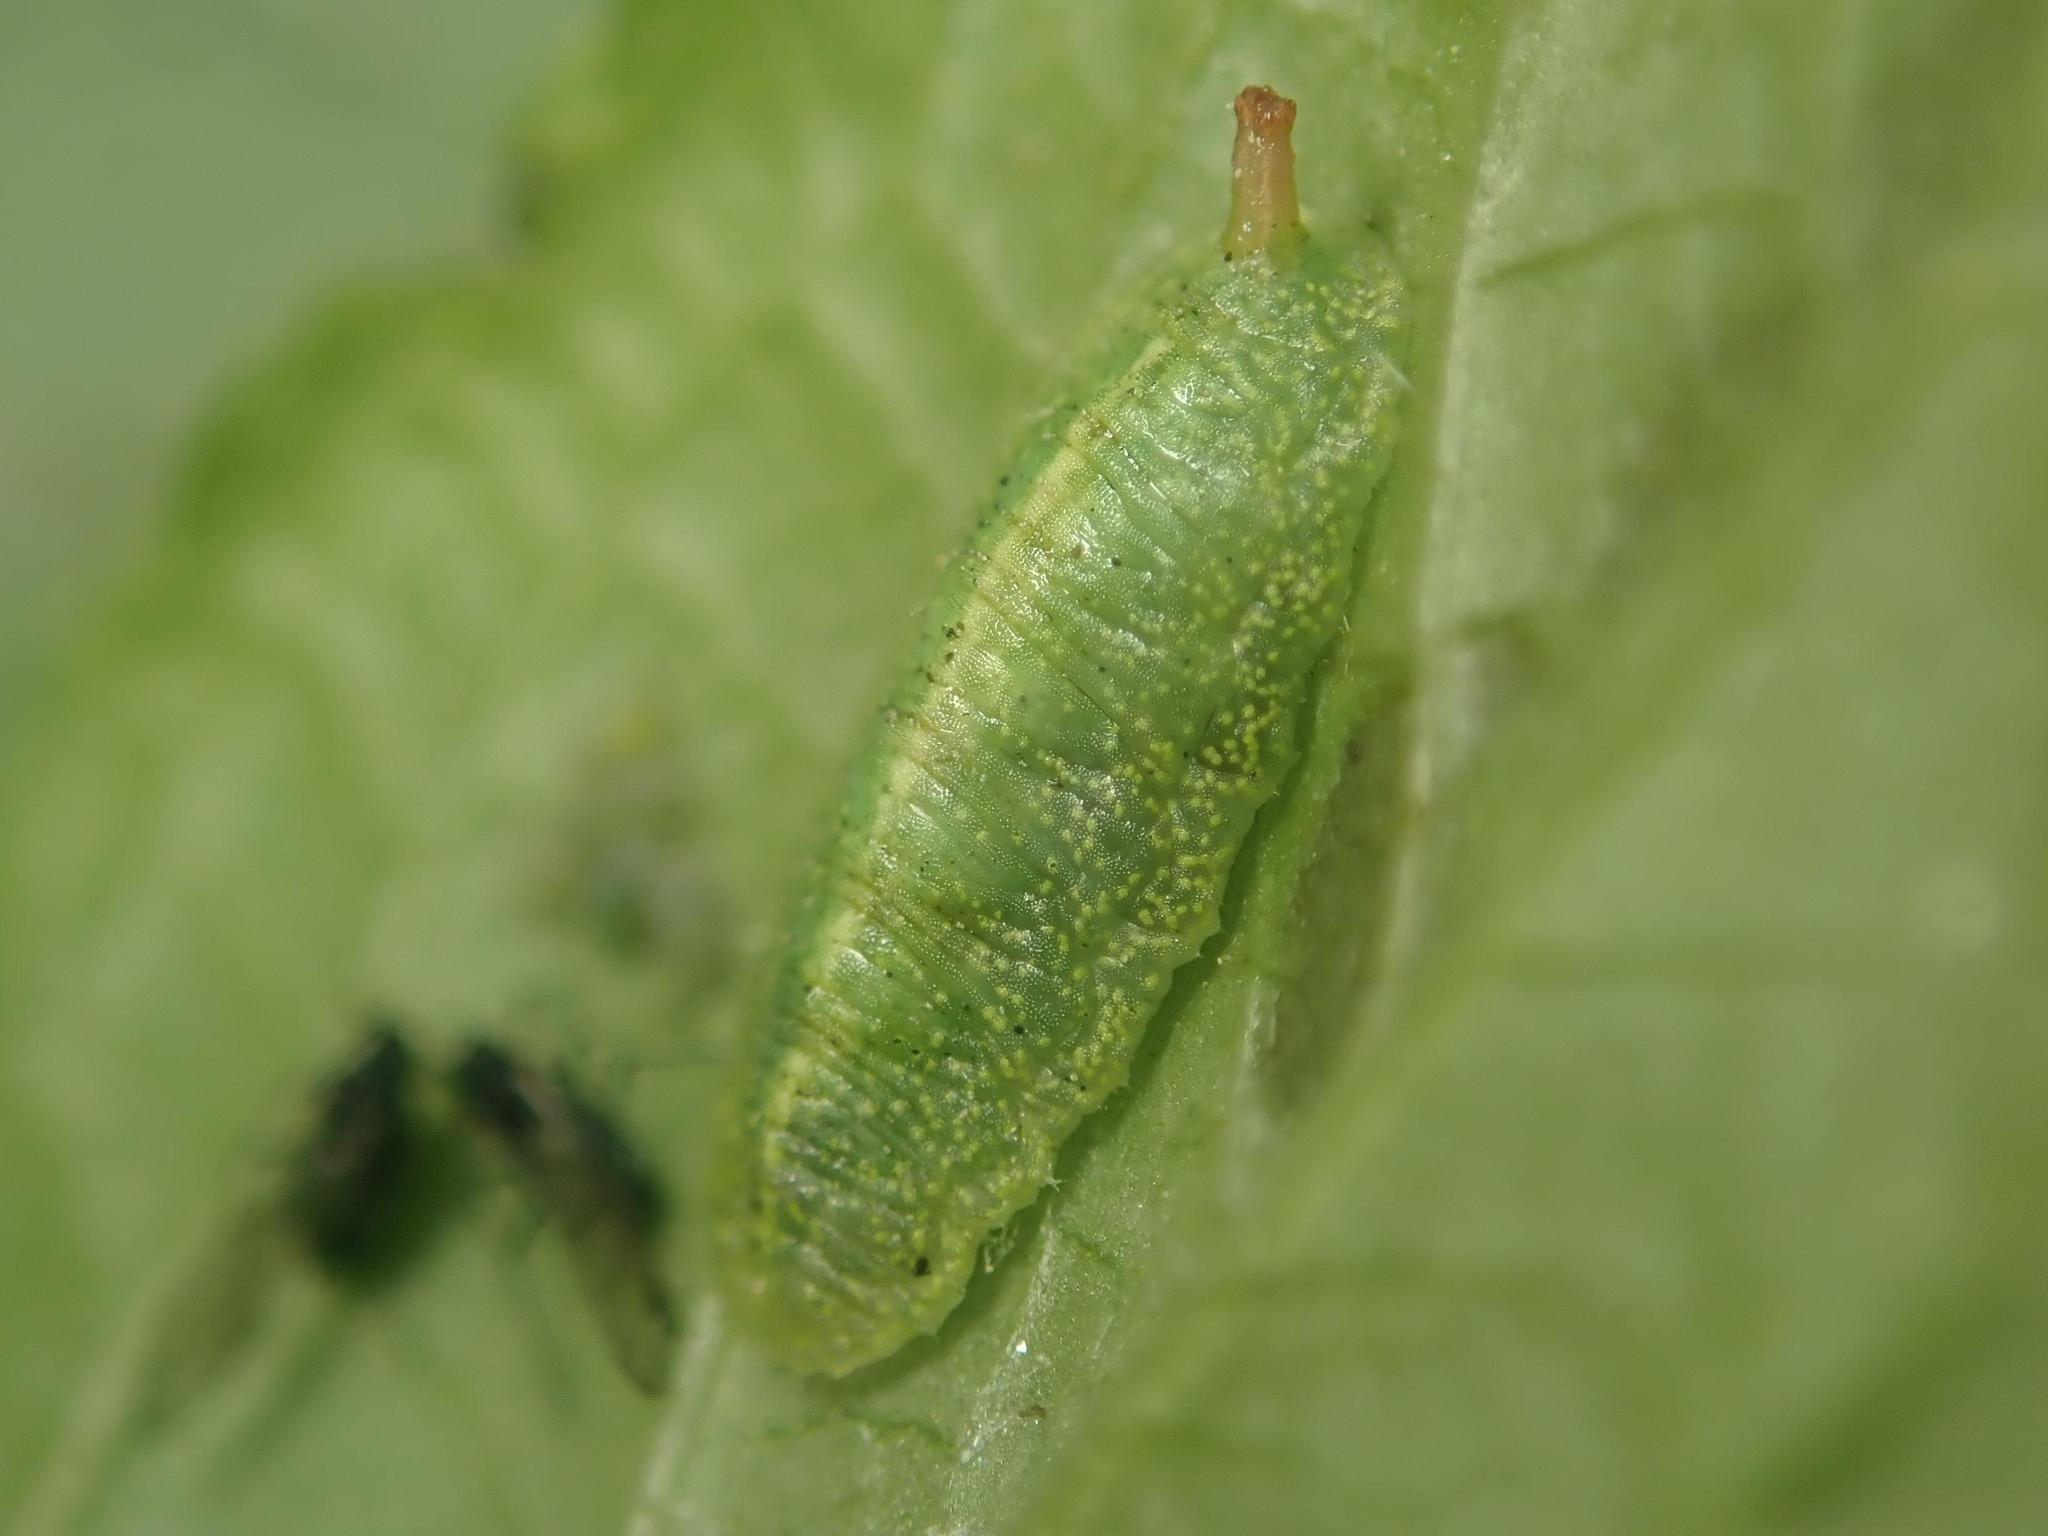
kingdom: Animalia
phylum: Arthropoda
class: Insecta
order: Diptera
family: Syrphidae
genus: Epistrophe
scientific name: Epistrophe eligans
